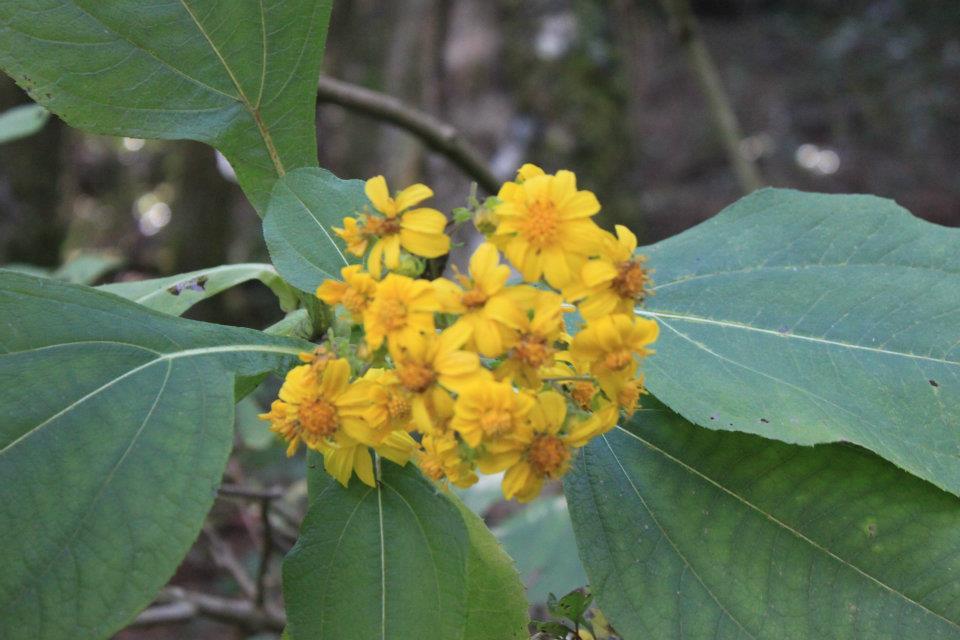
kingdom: Plantae
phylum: Tracheophyta
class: Magnoliopsida
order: Asterales
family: Asteraceae
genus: Rumfordia
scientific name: Rumfordia floribunda
